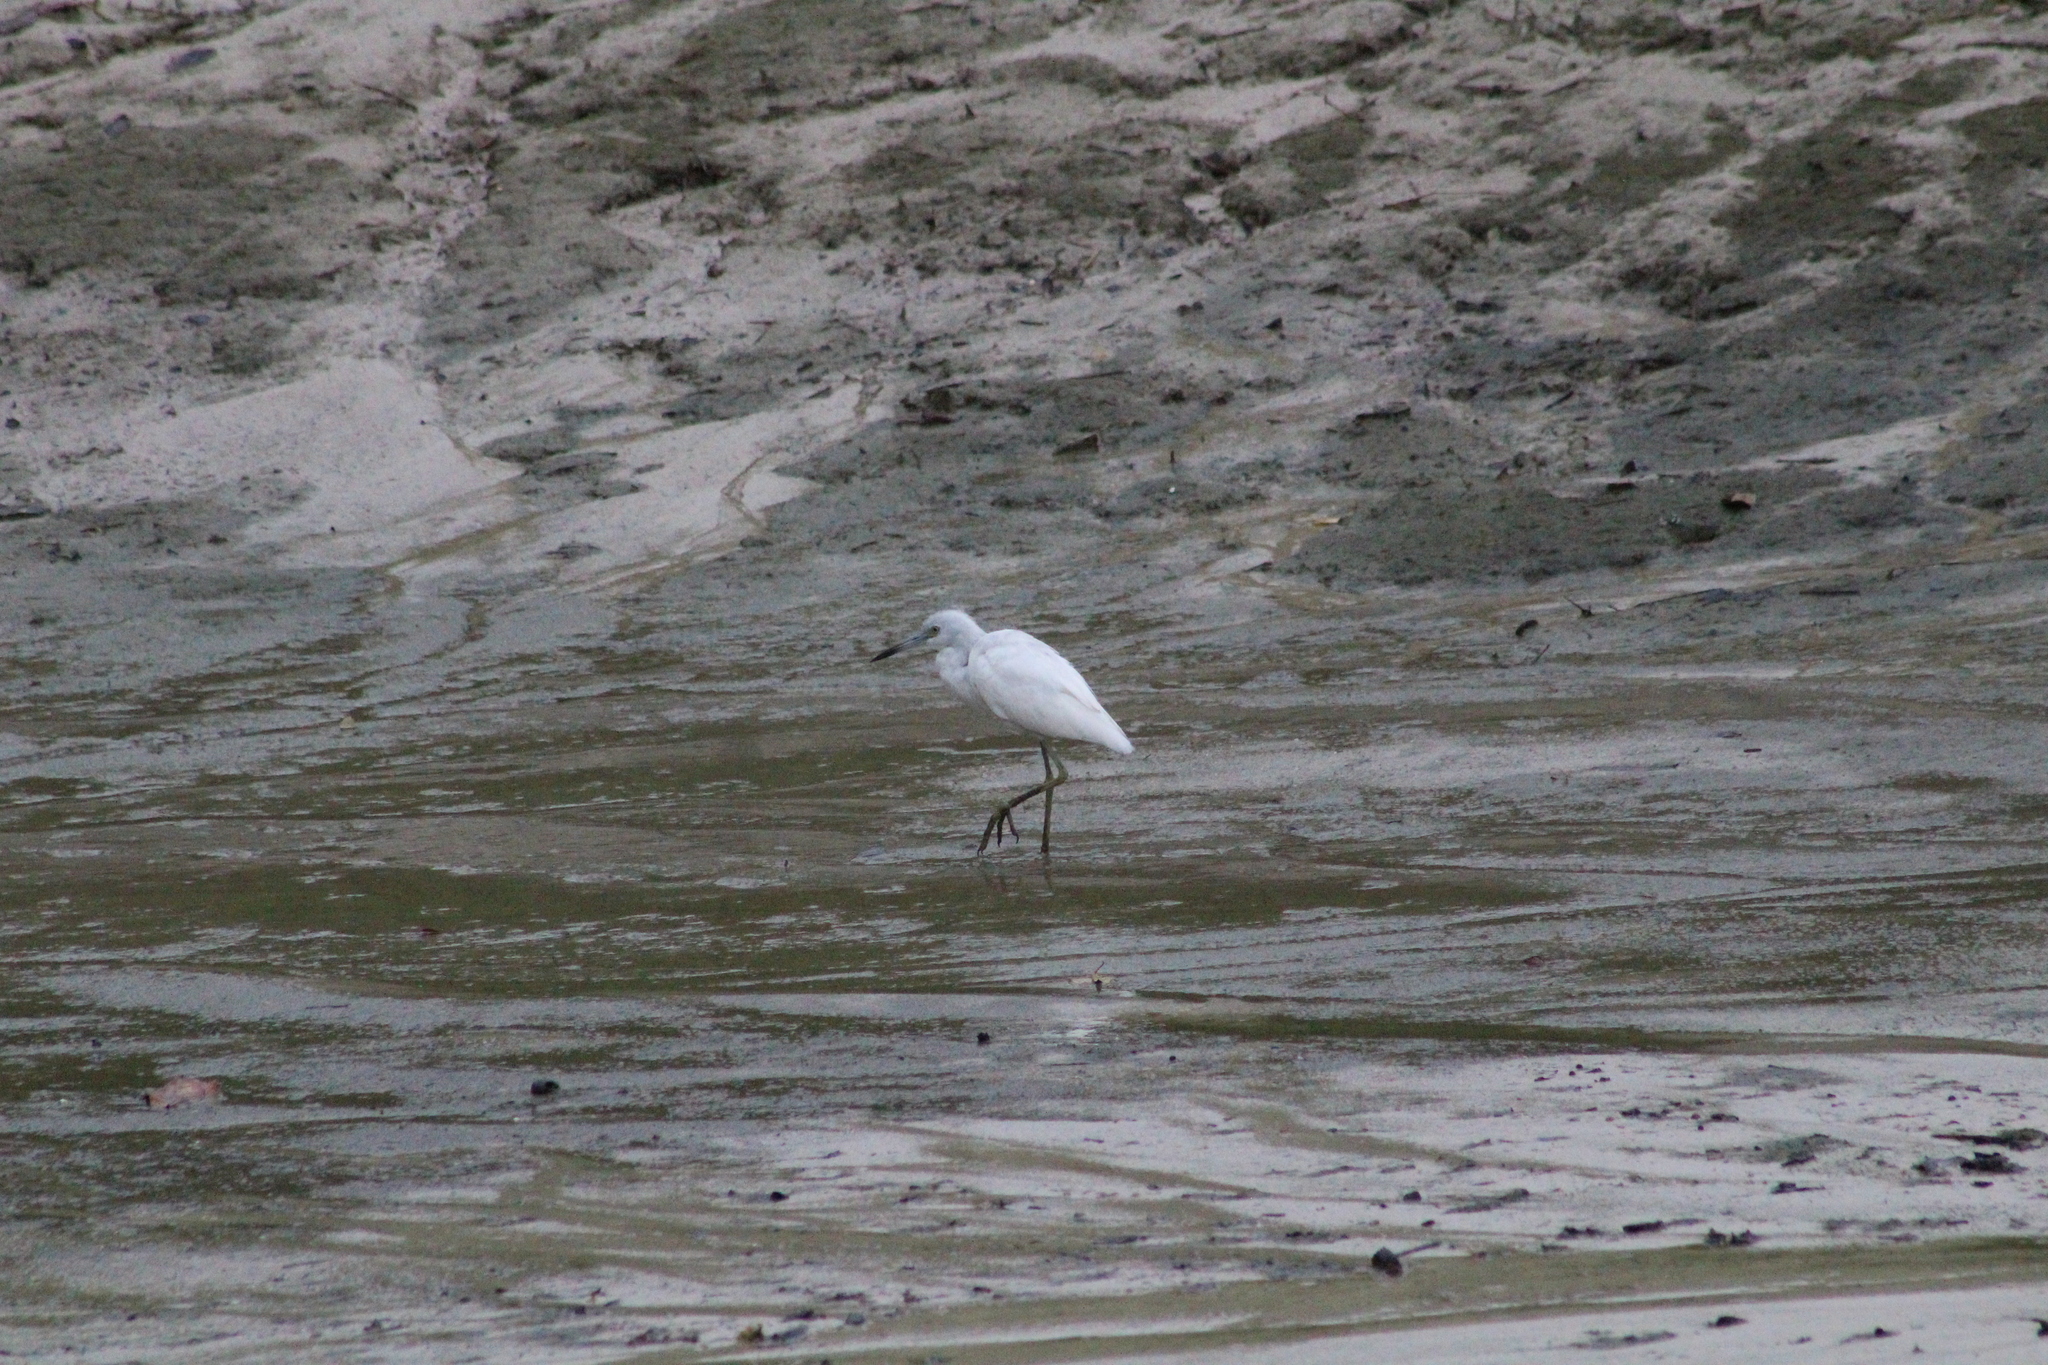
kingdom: Animalia
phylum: Chordata
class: Aves
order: Pelecaniformes
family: Ardeidae
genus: Egretta
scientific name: Egretta caerulea
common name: Little blue heron
